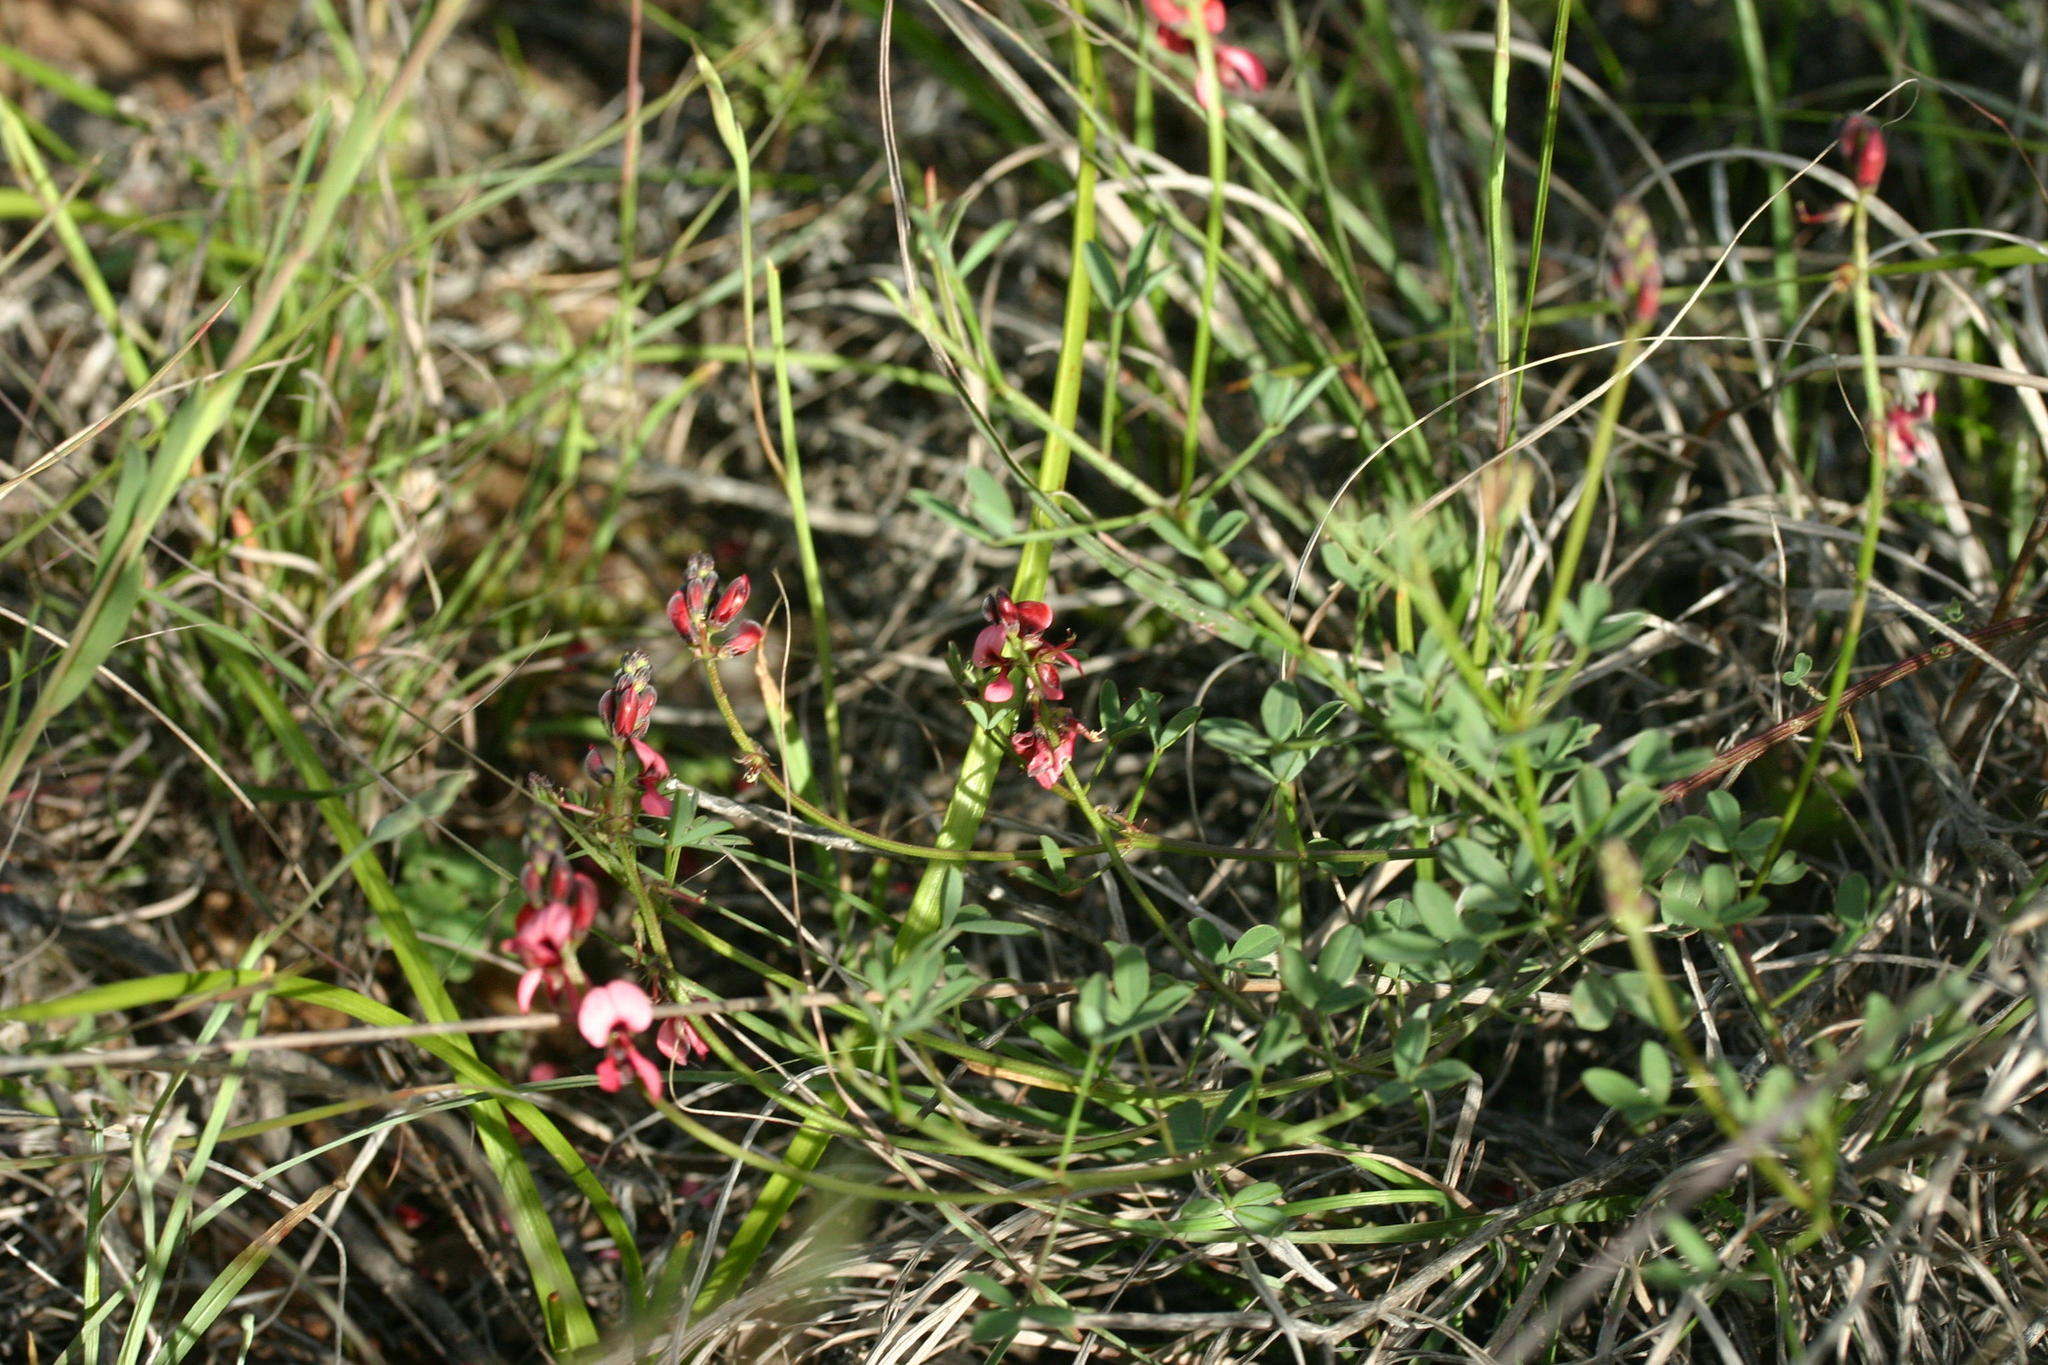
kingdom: Plantae
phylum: Tracheophyta
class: Magnoliopsida
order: Fabales
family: Fabaceae
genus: Indigofera
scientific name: Indigofera heterophylla
